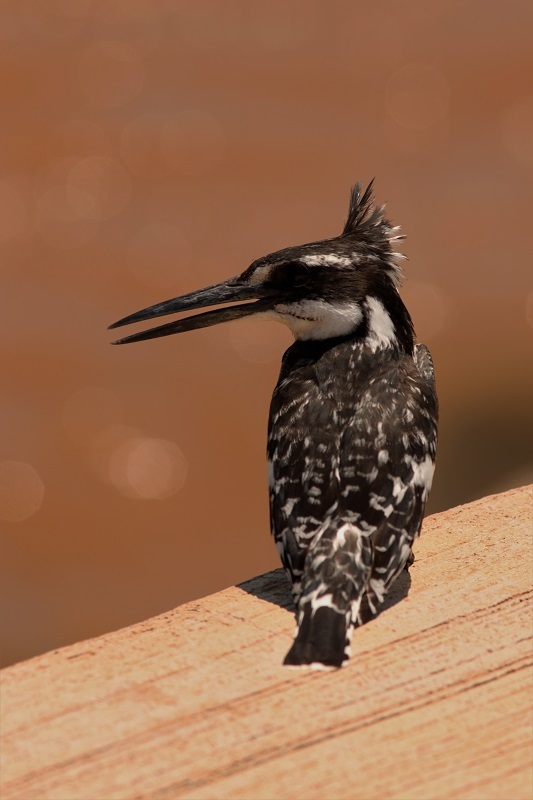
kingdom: Animalia
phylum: Chordata
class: Aves
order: Coraciiformes
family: Alcedinidae
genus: Ceryle
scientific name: Ceryle rudis
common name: Pied kingfisher
